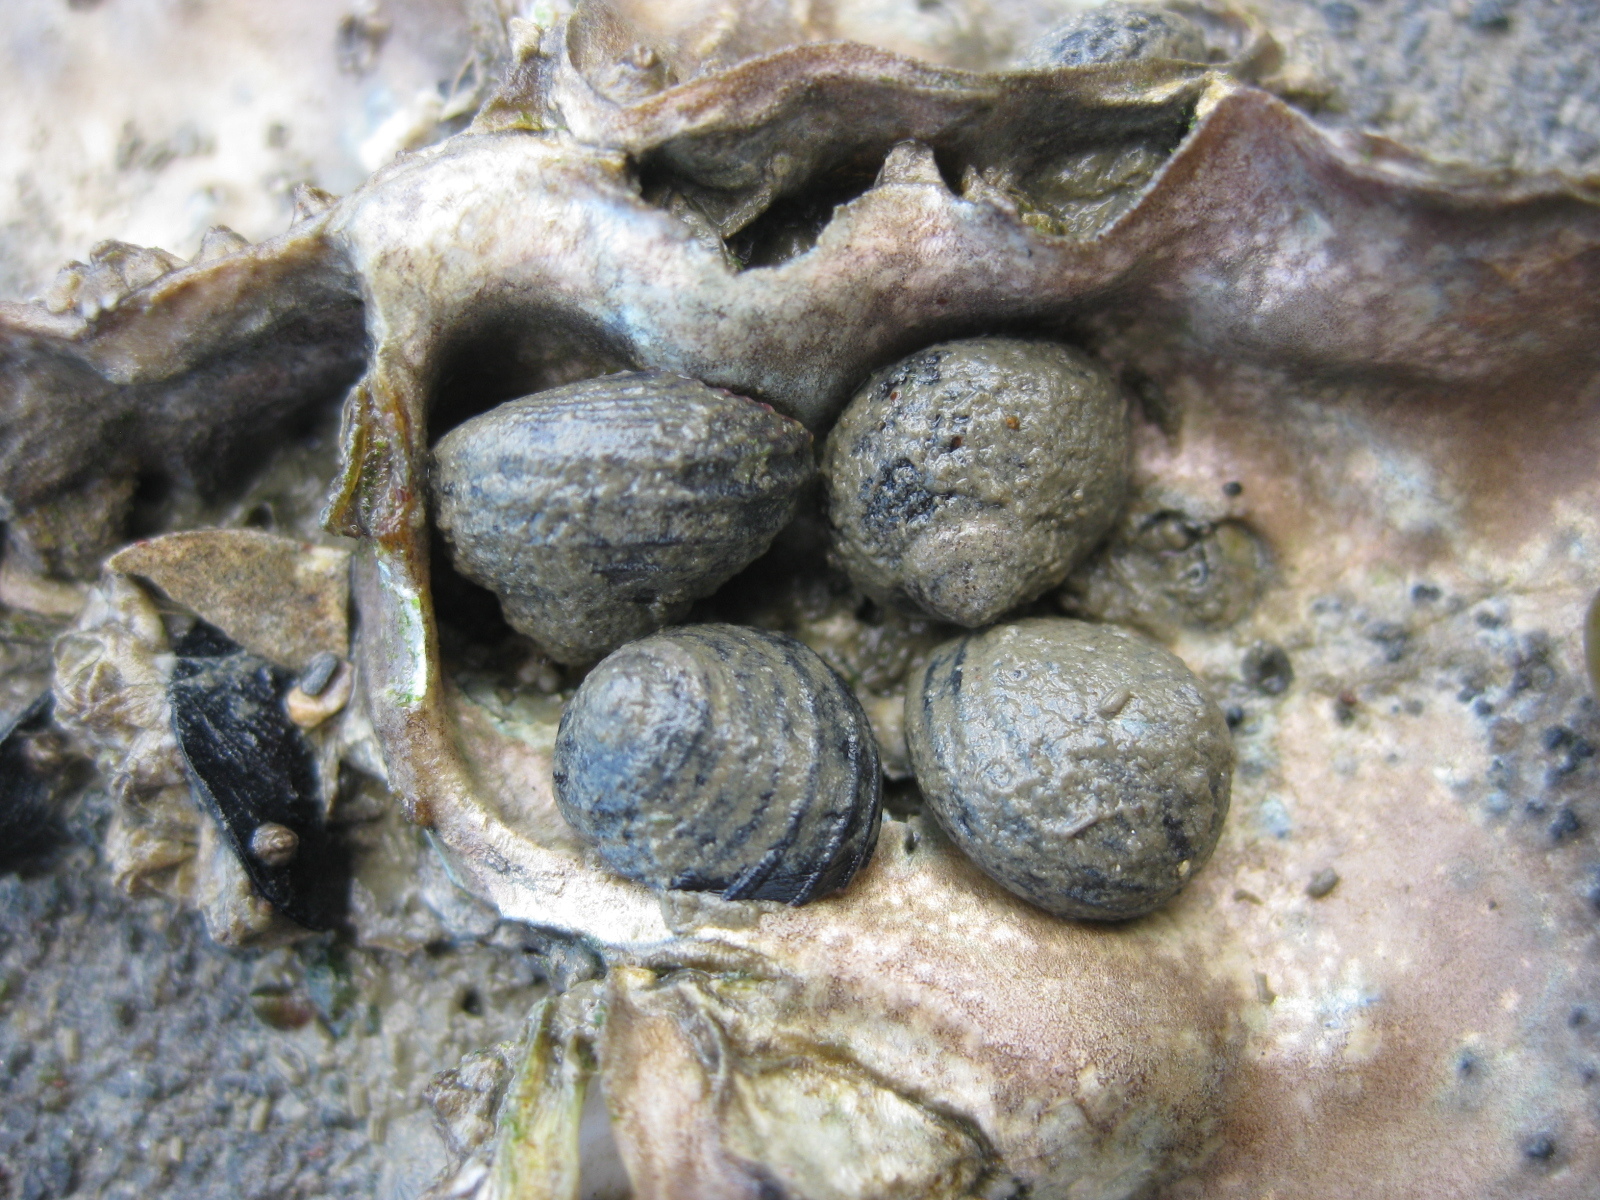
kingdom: Animalia
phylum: Mollusca
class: Gastropoda
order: Trochida
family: Trochidae
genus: Diloma
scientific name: Diloma subrostratum
